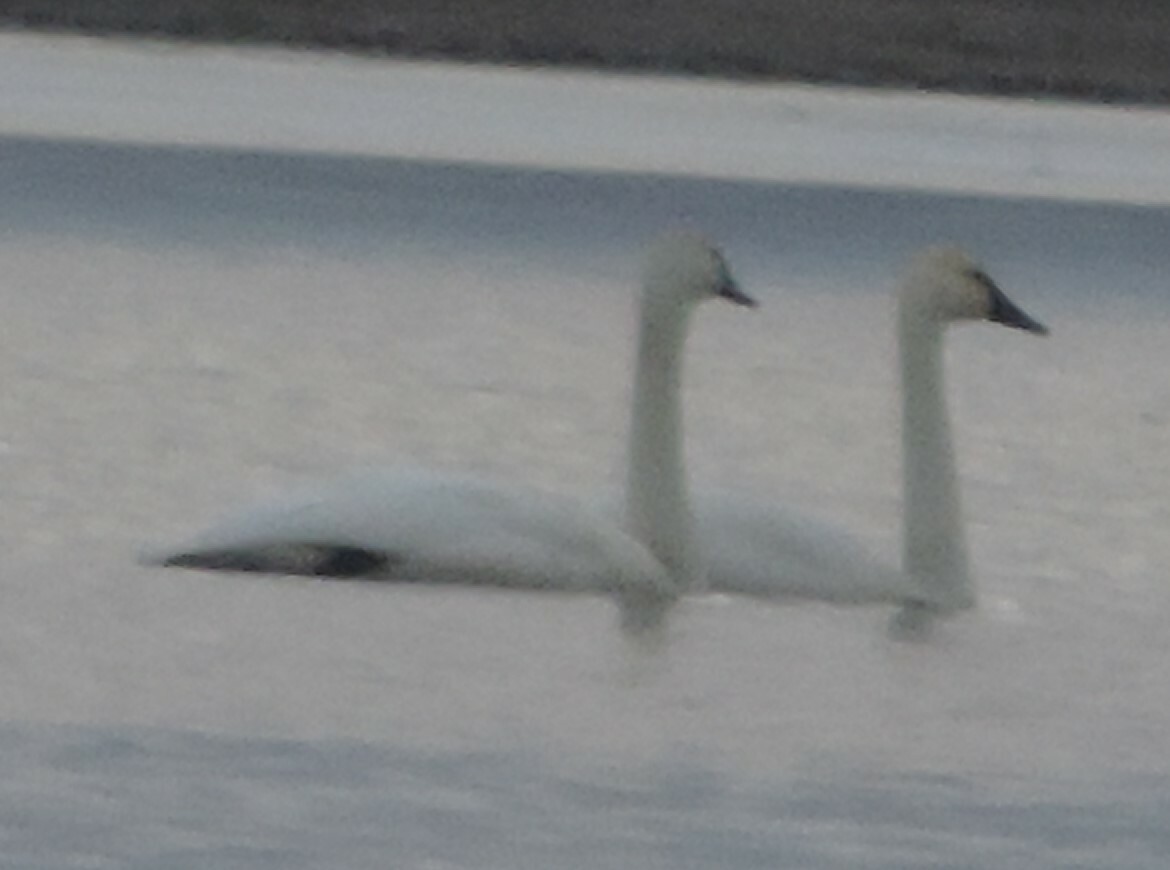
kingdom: Animalia
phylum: Chordata
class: Aves
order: Anseriformes
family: Anatidae
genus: Cygnus
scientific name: Cygnus buccinator
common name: Trumpeter swan
